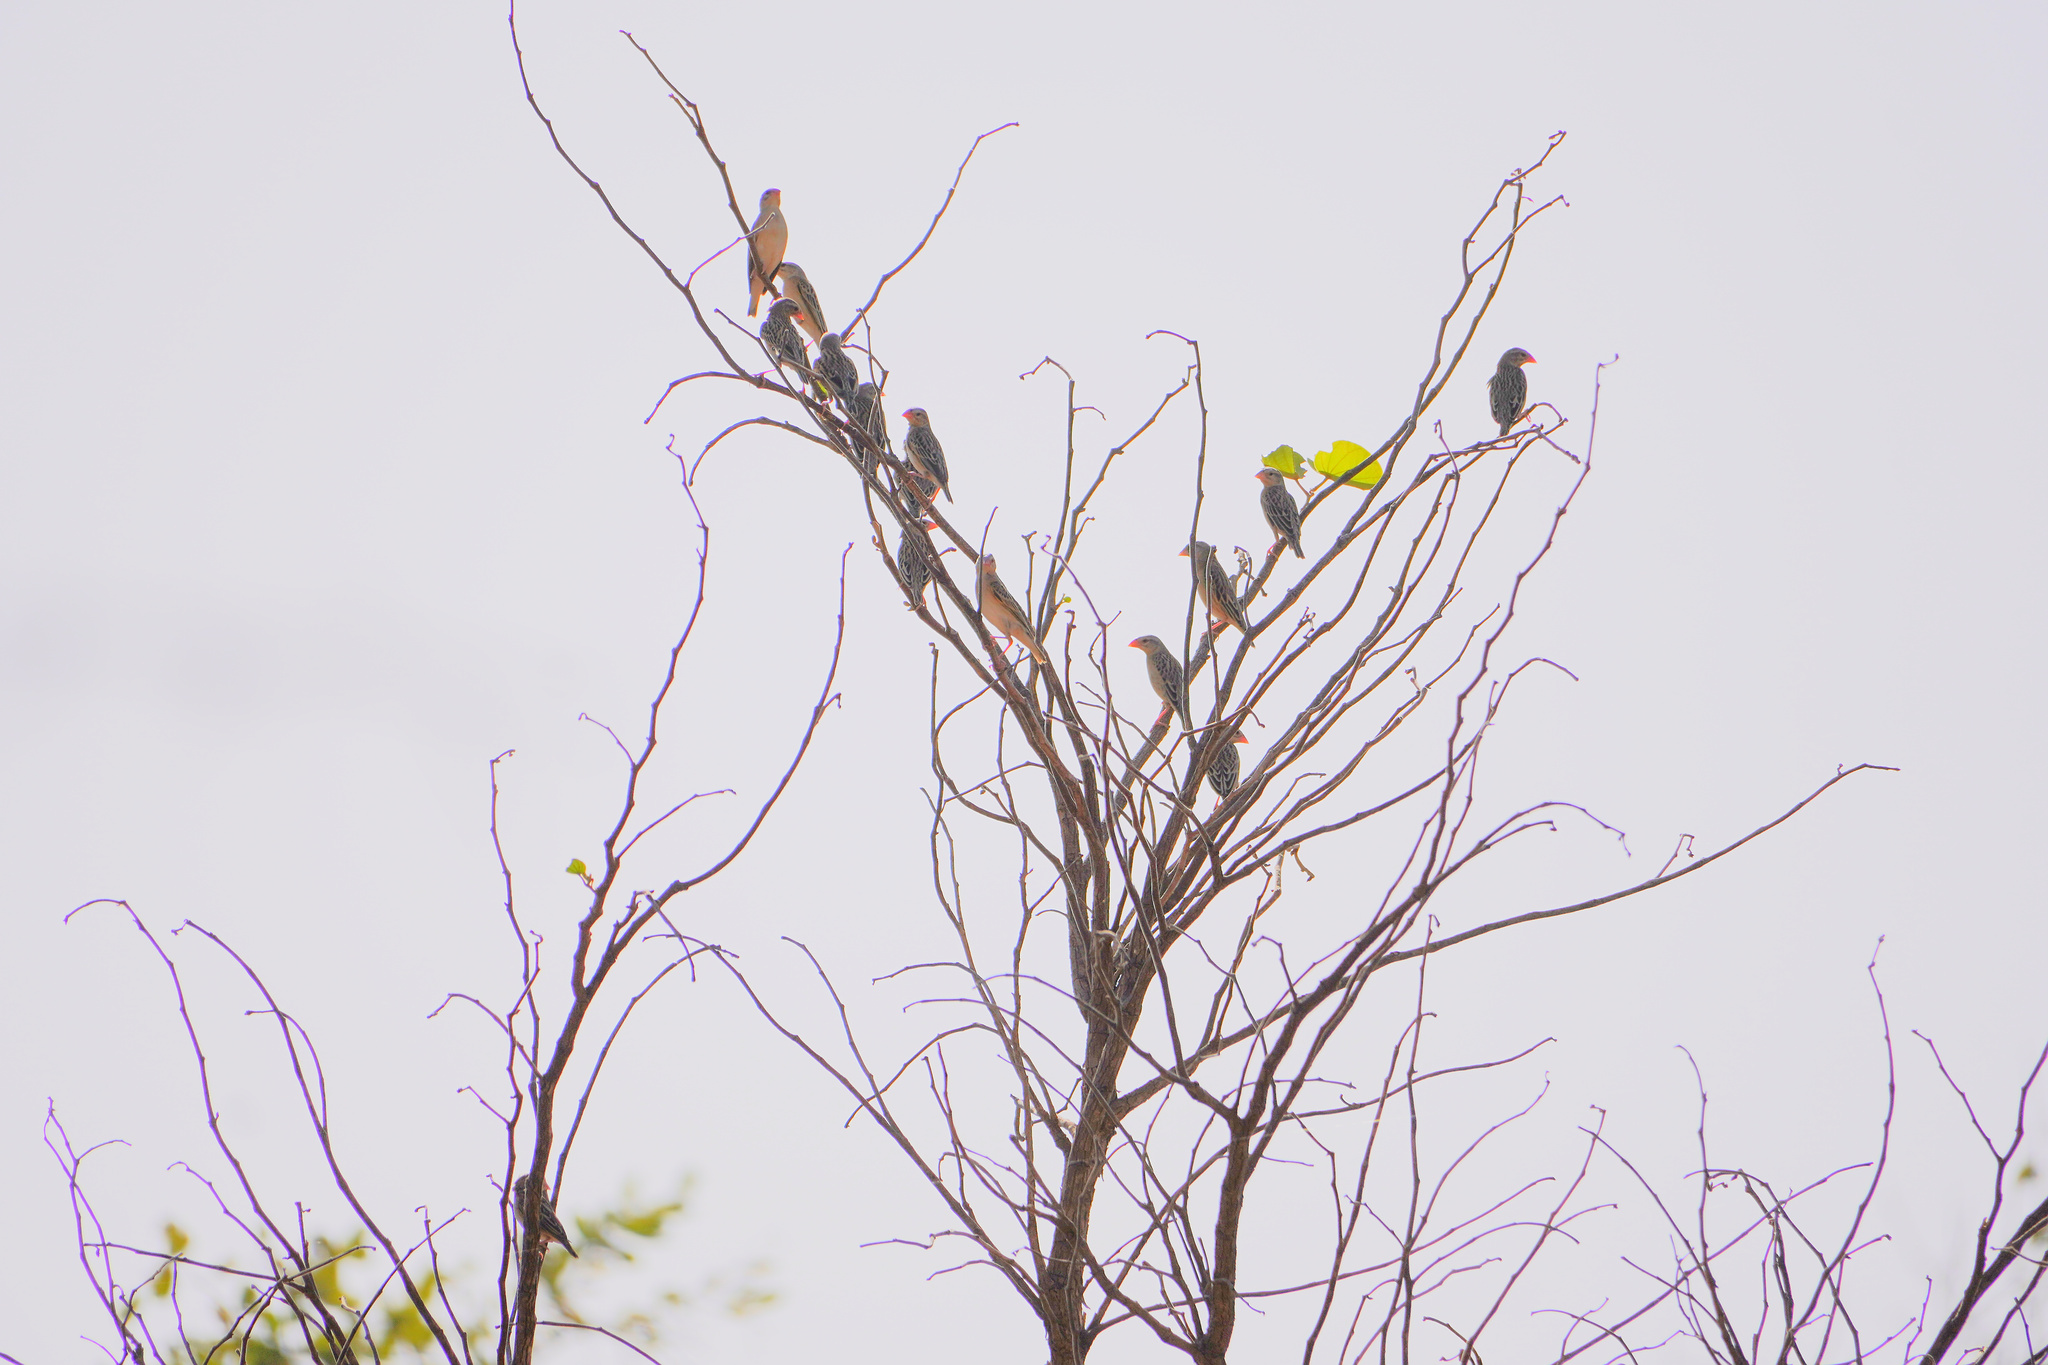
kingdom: Animalia
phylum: Chordata
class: Aves
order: Passeriformes
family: Ploceidae
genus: Quelea
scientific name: Quelea quelea
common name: Red-billed quelea
